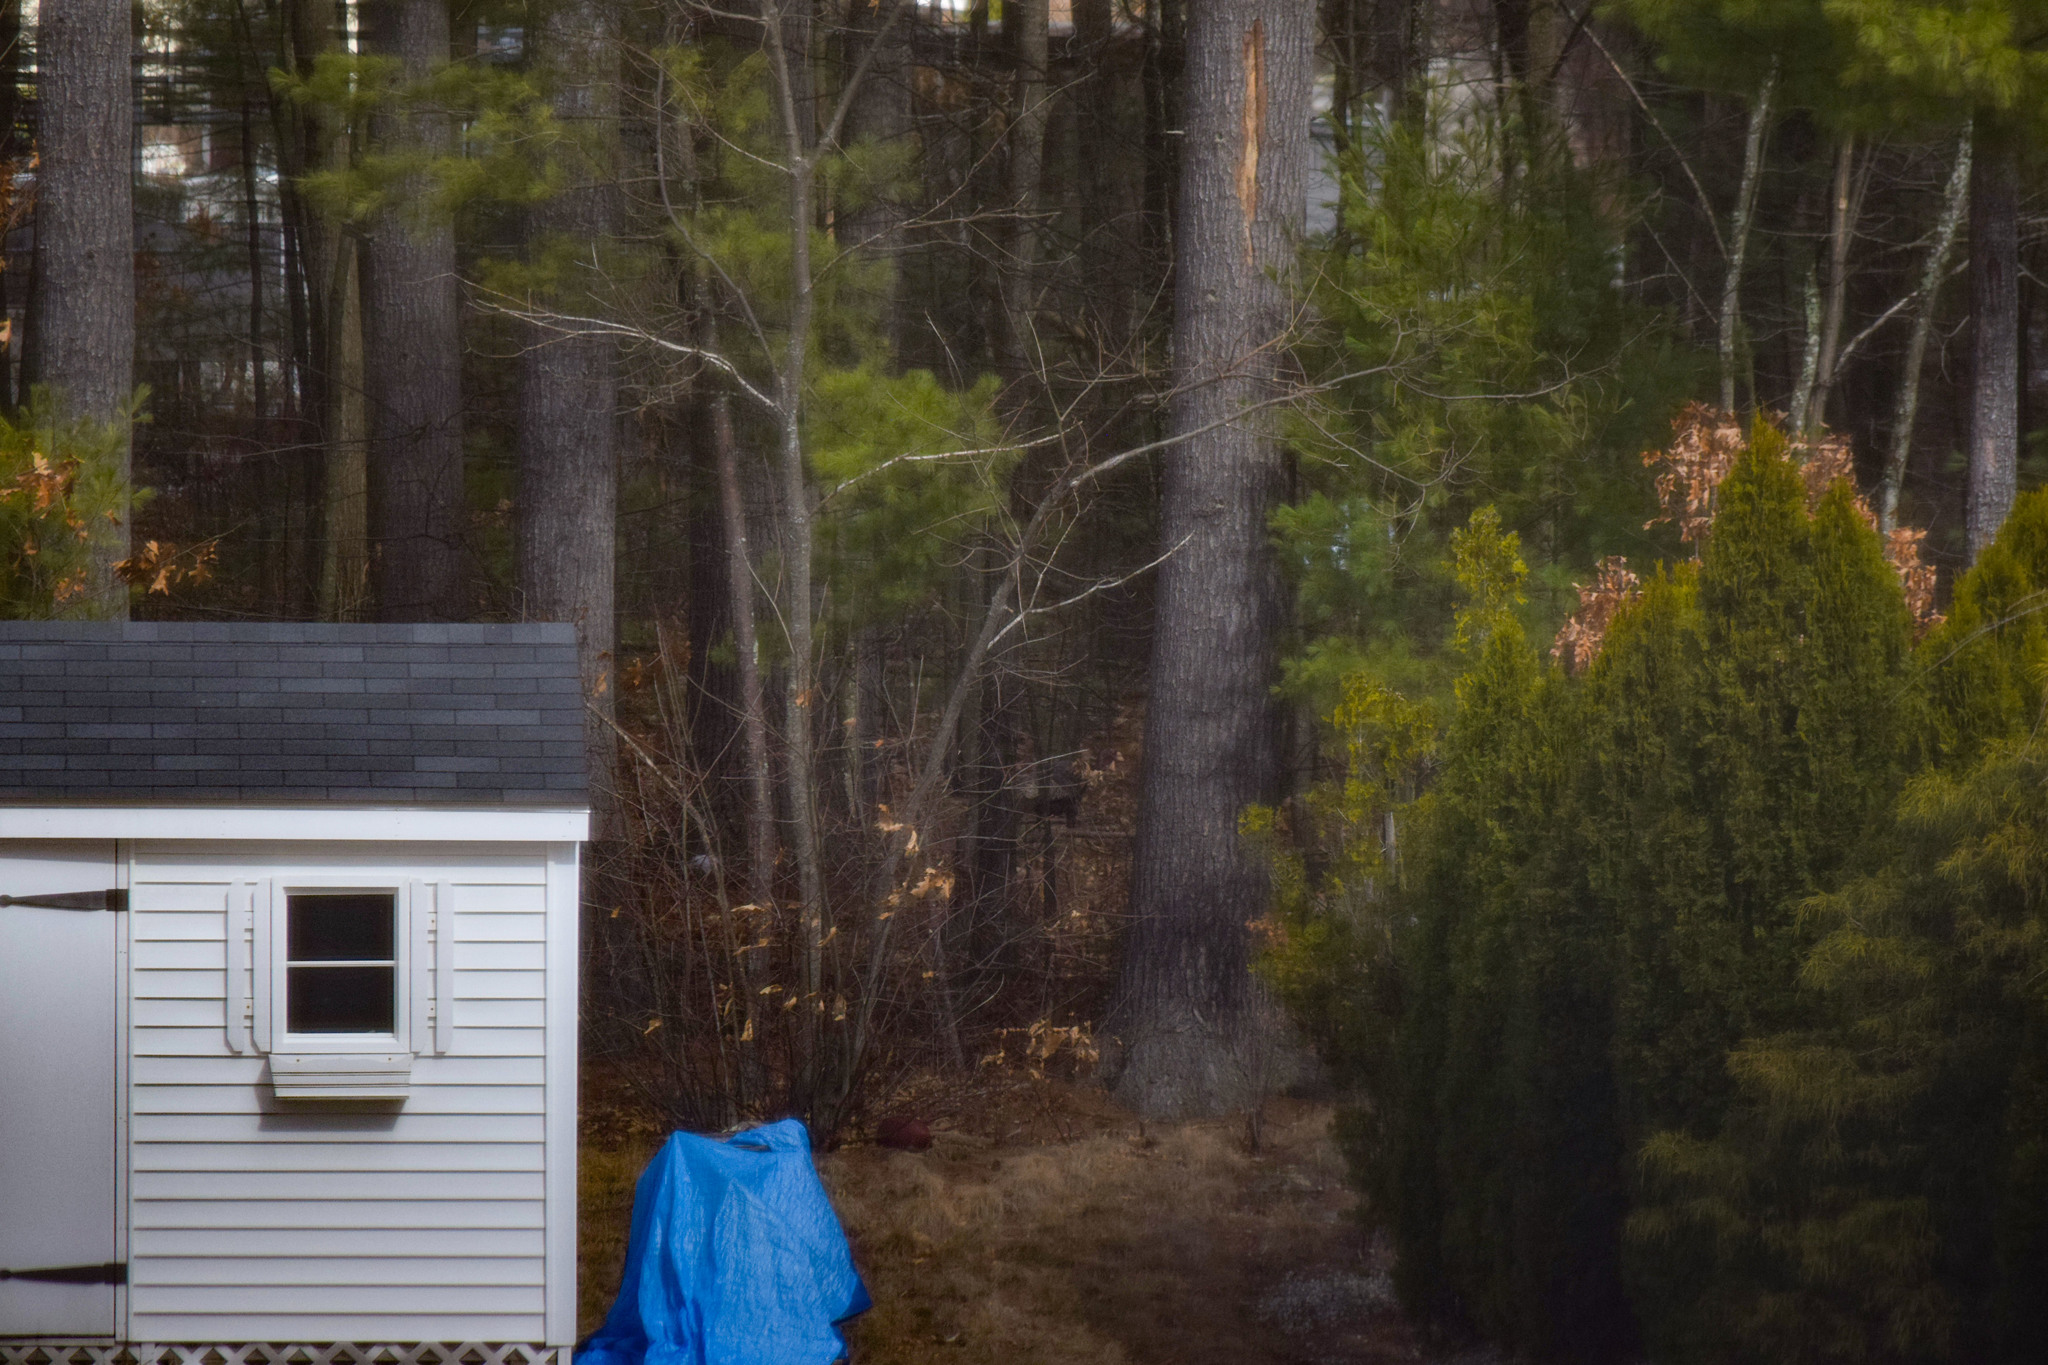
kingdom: Animalia
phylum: Chordata
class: Aves
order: Galliformes
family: Phasianidae
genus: Meleagris
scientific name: Meleagris gallopavo
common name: Wild turkey
